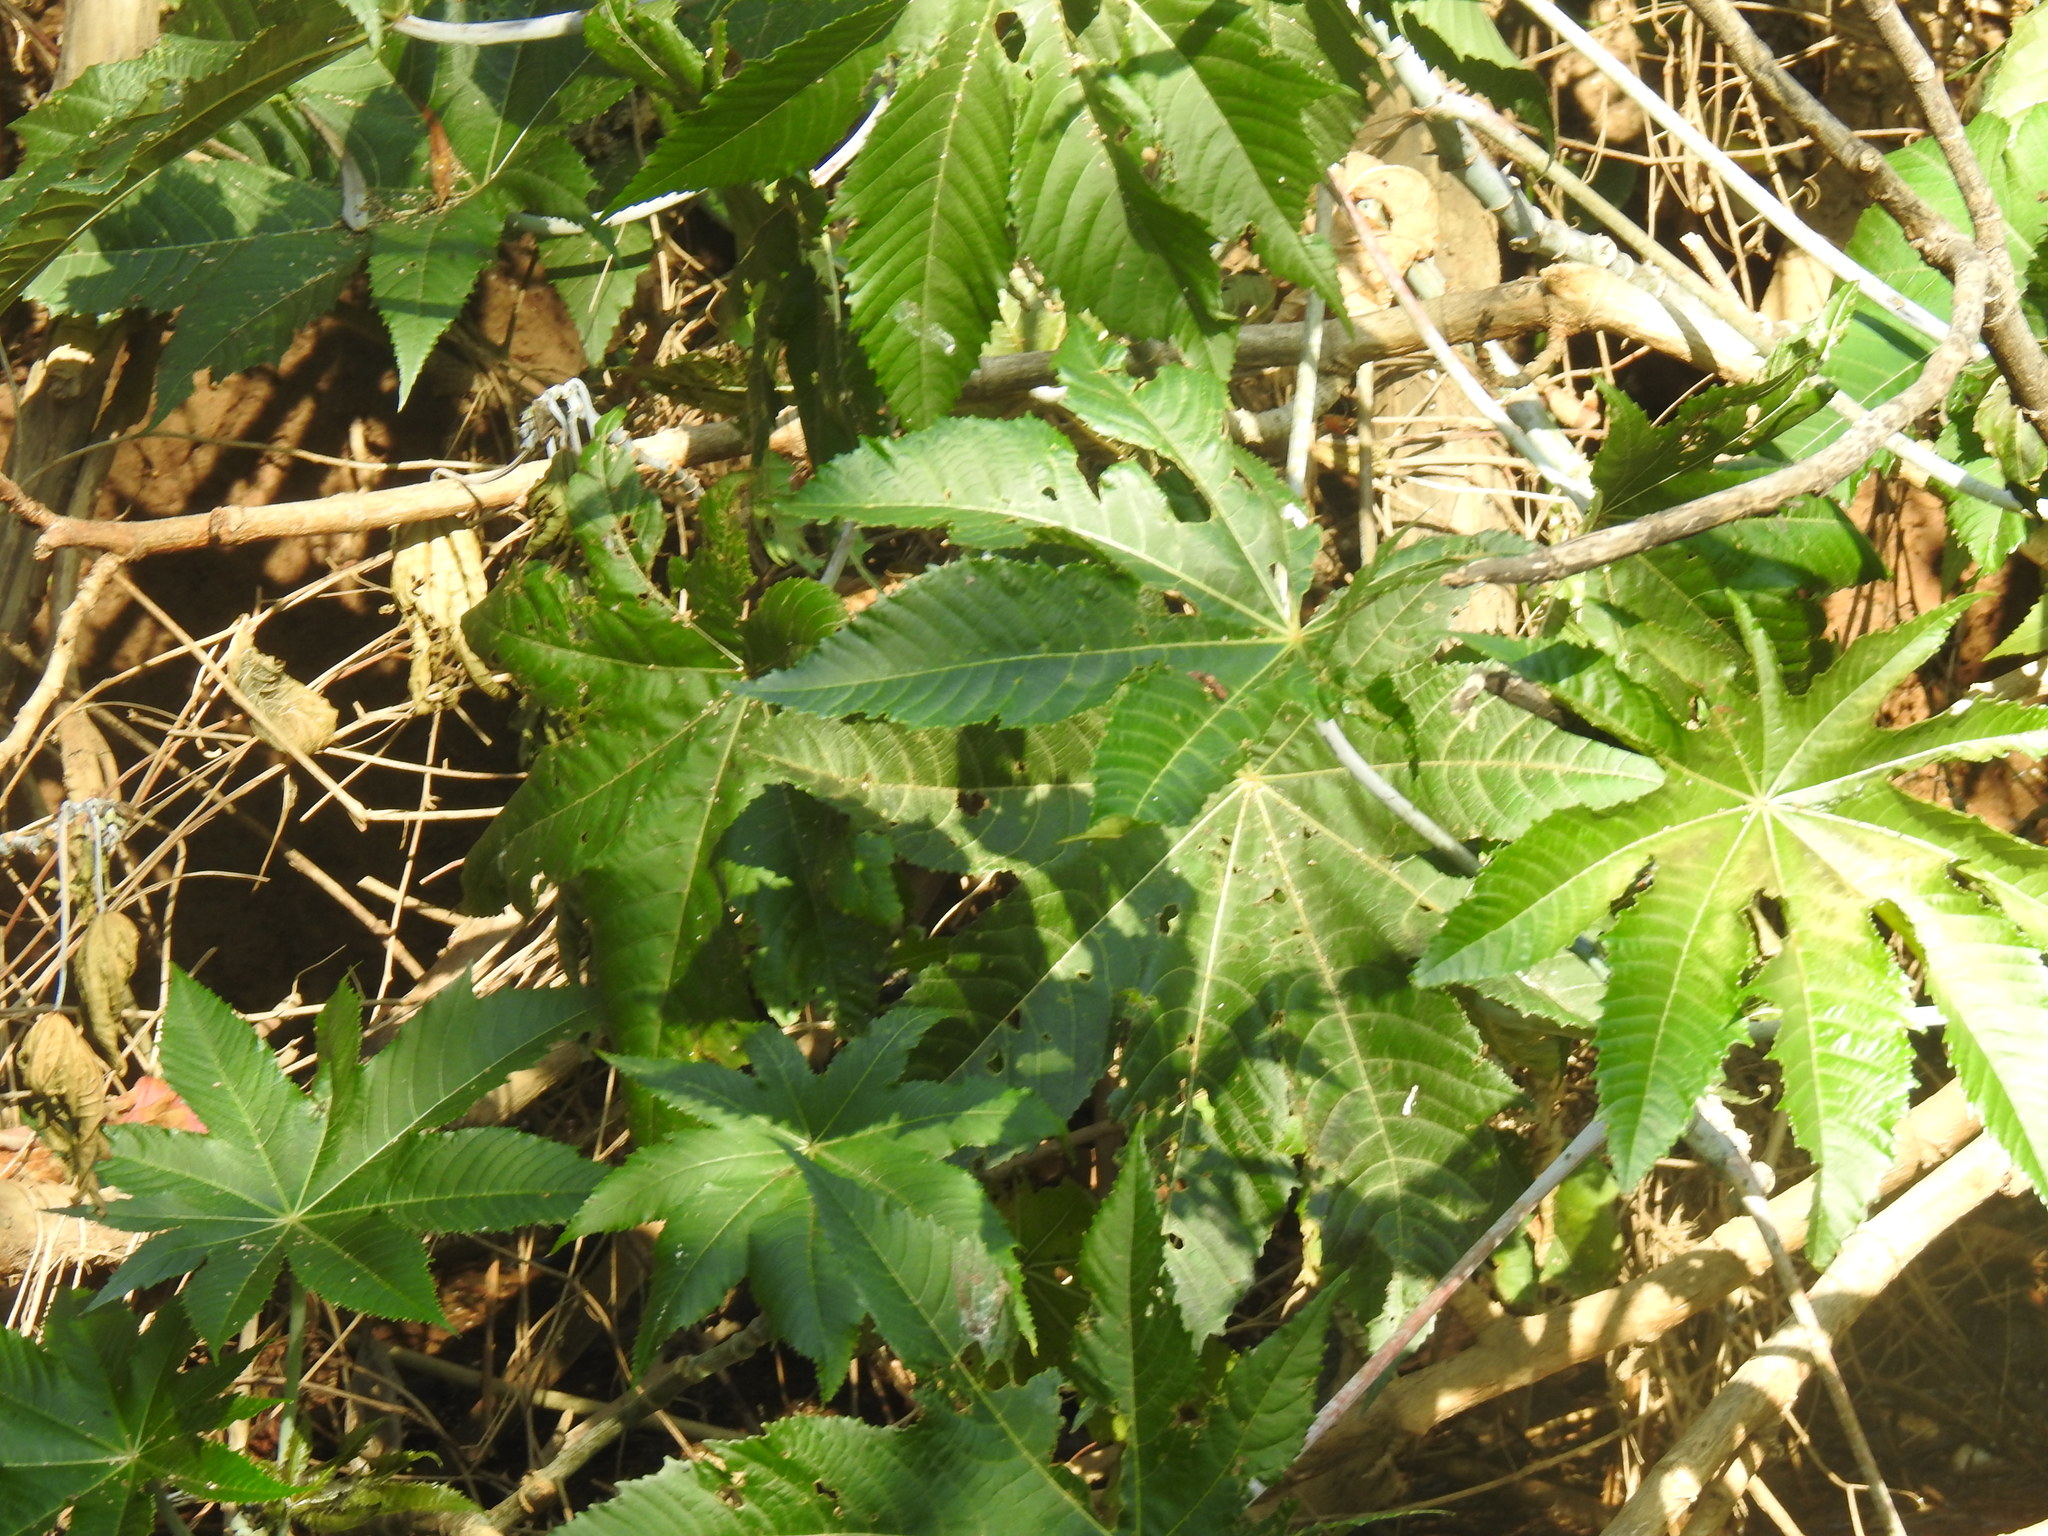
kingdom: Plantae
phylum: Tracheophyta
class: Magnoliopsida
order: Malpighiales
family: Euphorbiaceae
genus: Ricinus
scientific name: Ricinus communis
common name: Castor-oil-plant
